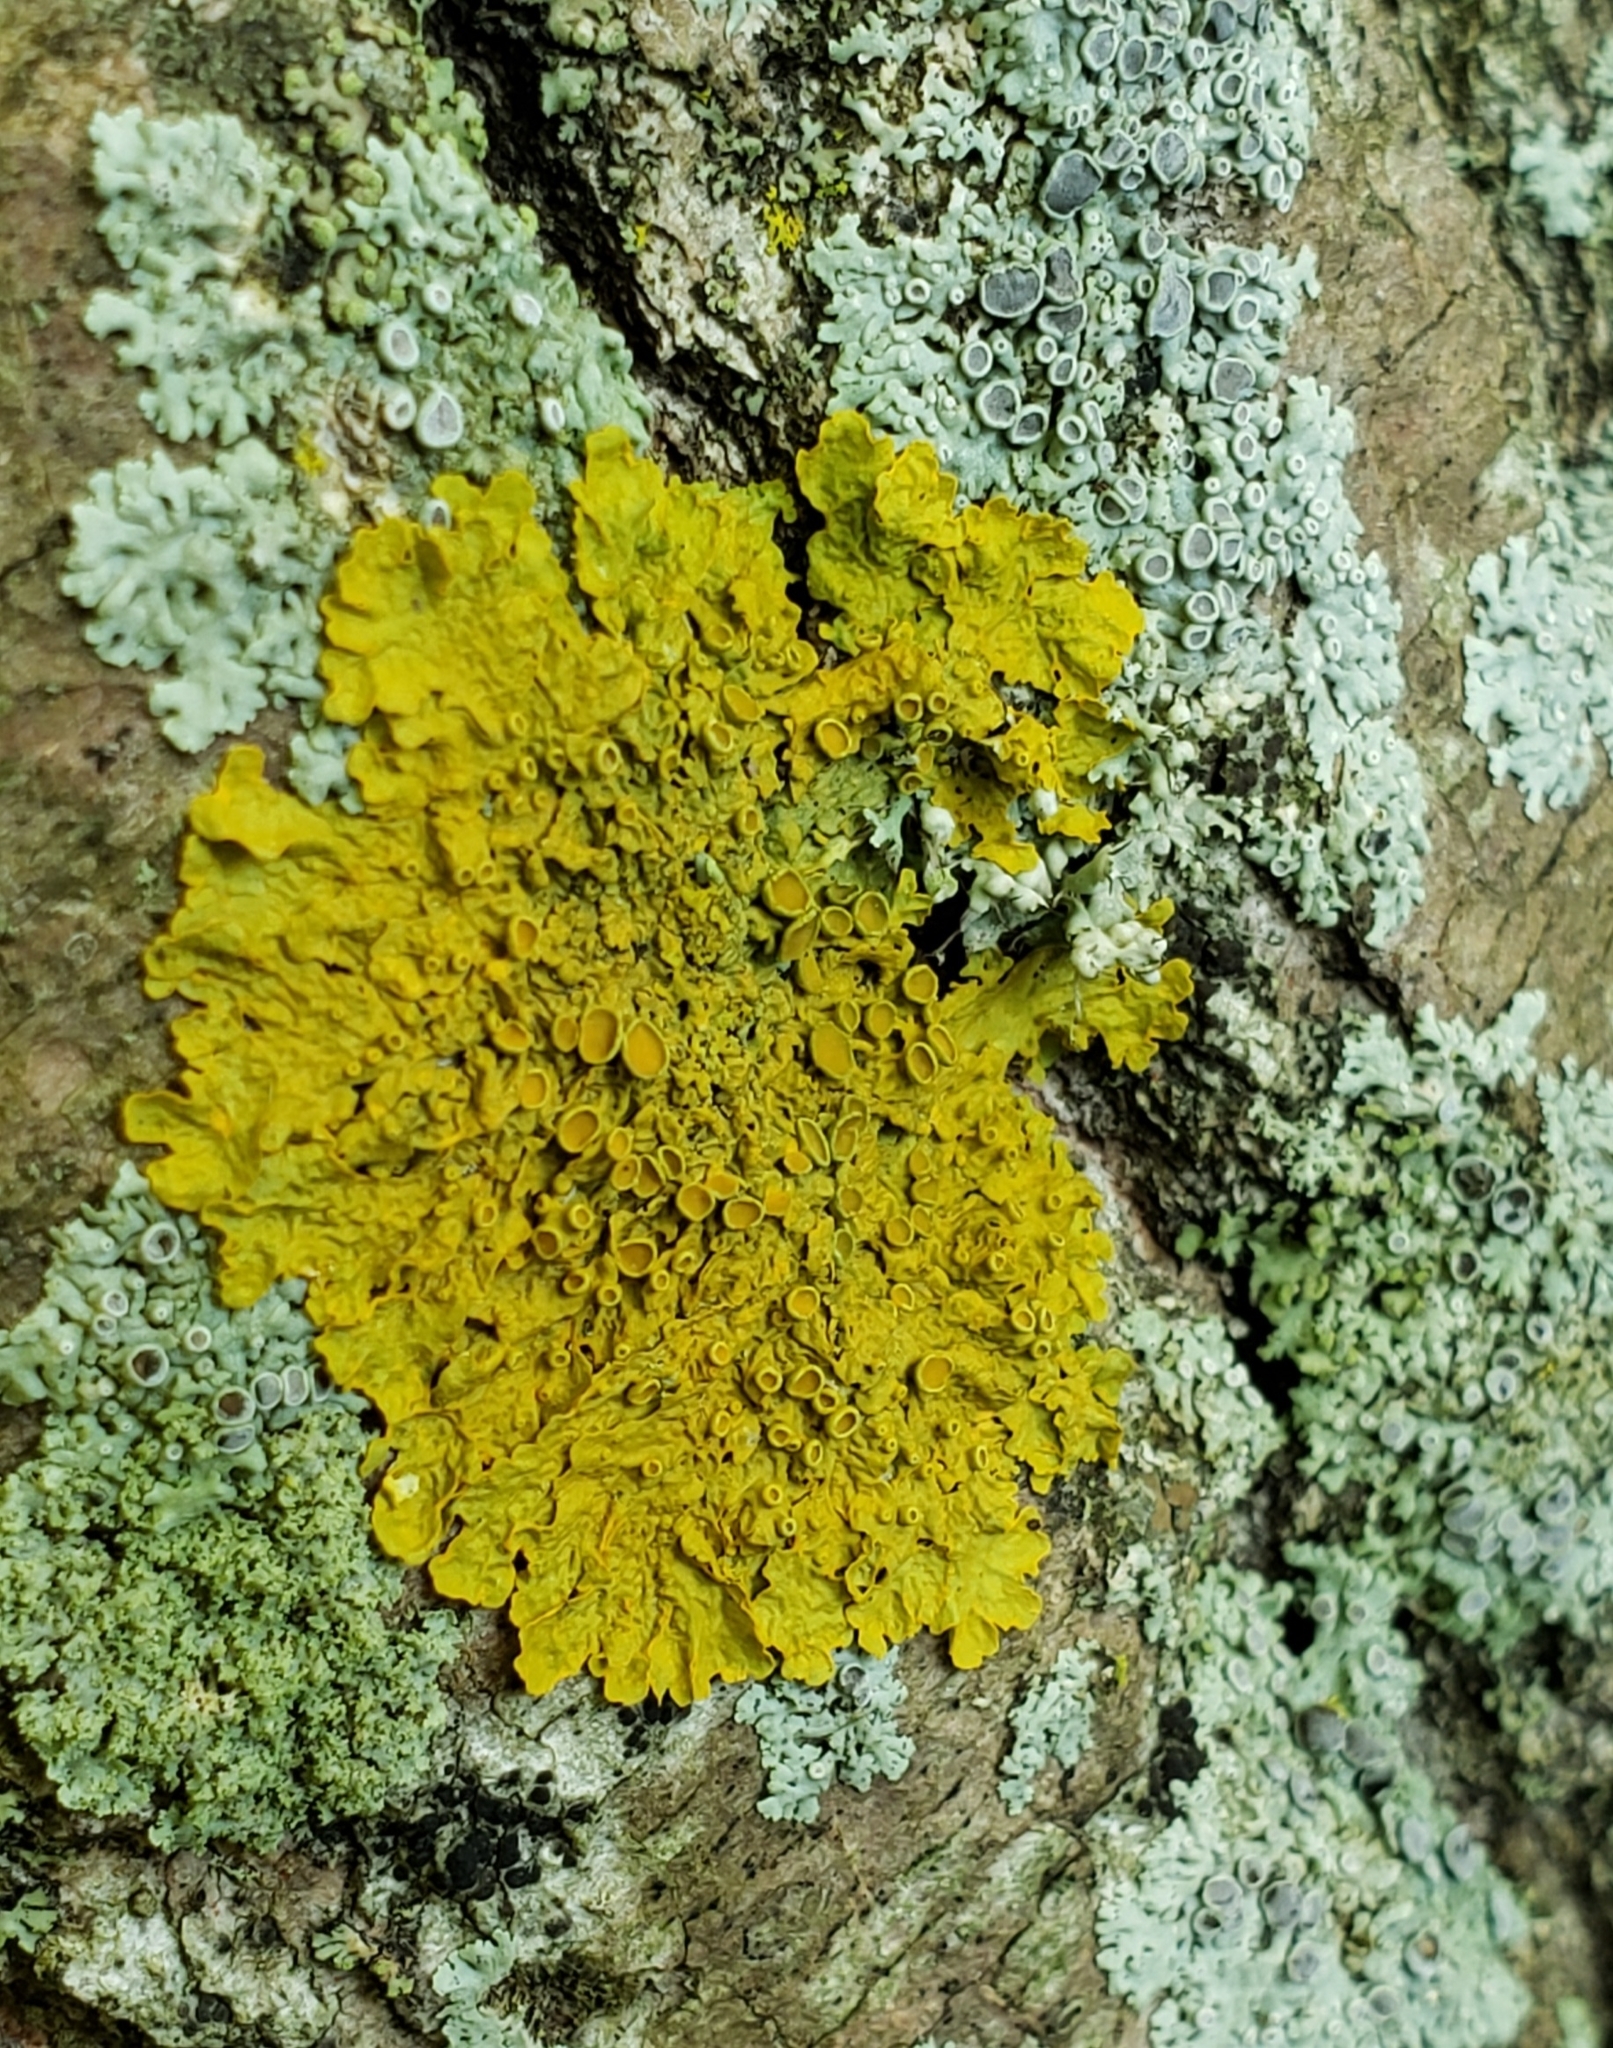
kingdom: Fungi
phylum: Ascomycota
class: Lecanoromycetes
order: Teloschistales
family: Teloschistaceae
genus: Xanthoria
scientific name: Xanthoria parietina
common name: Common orange lichen
